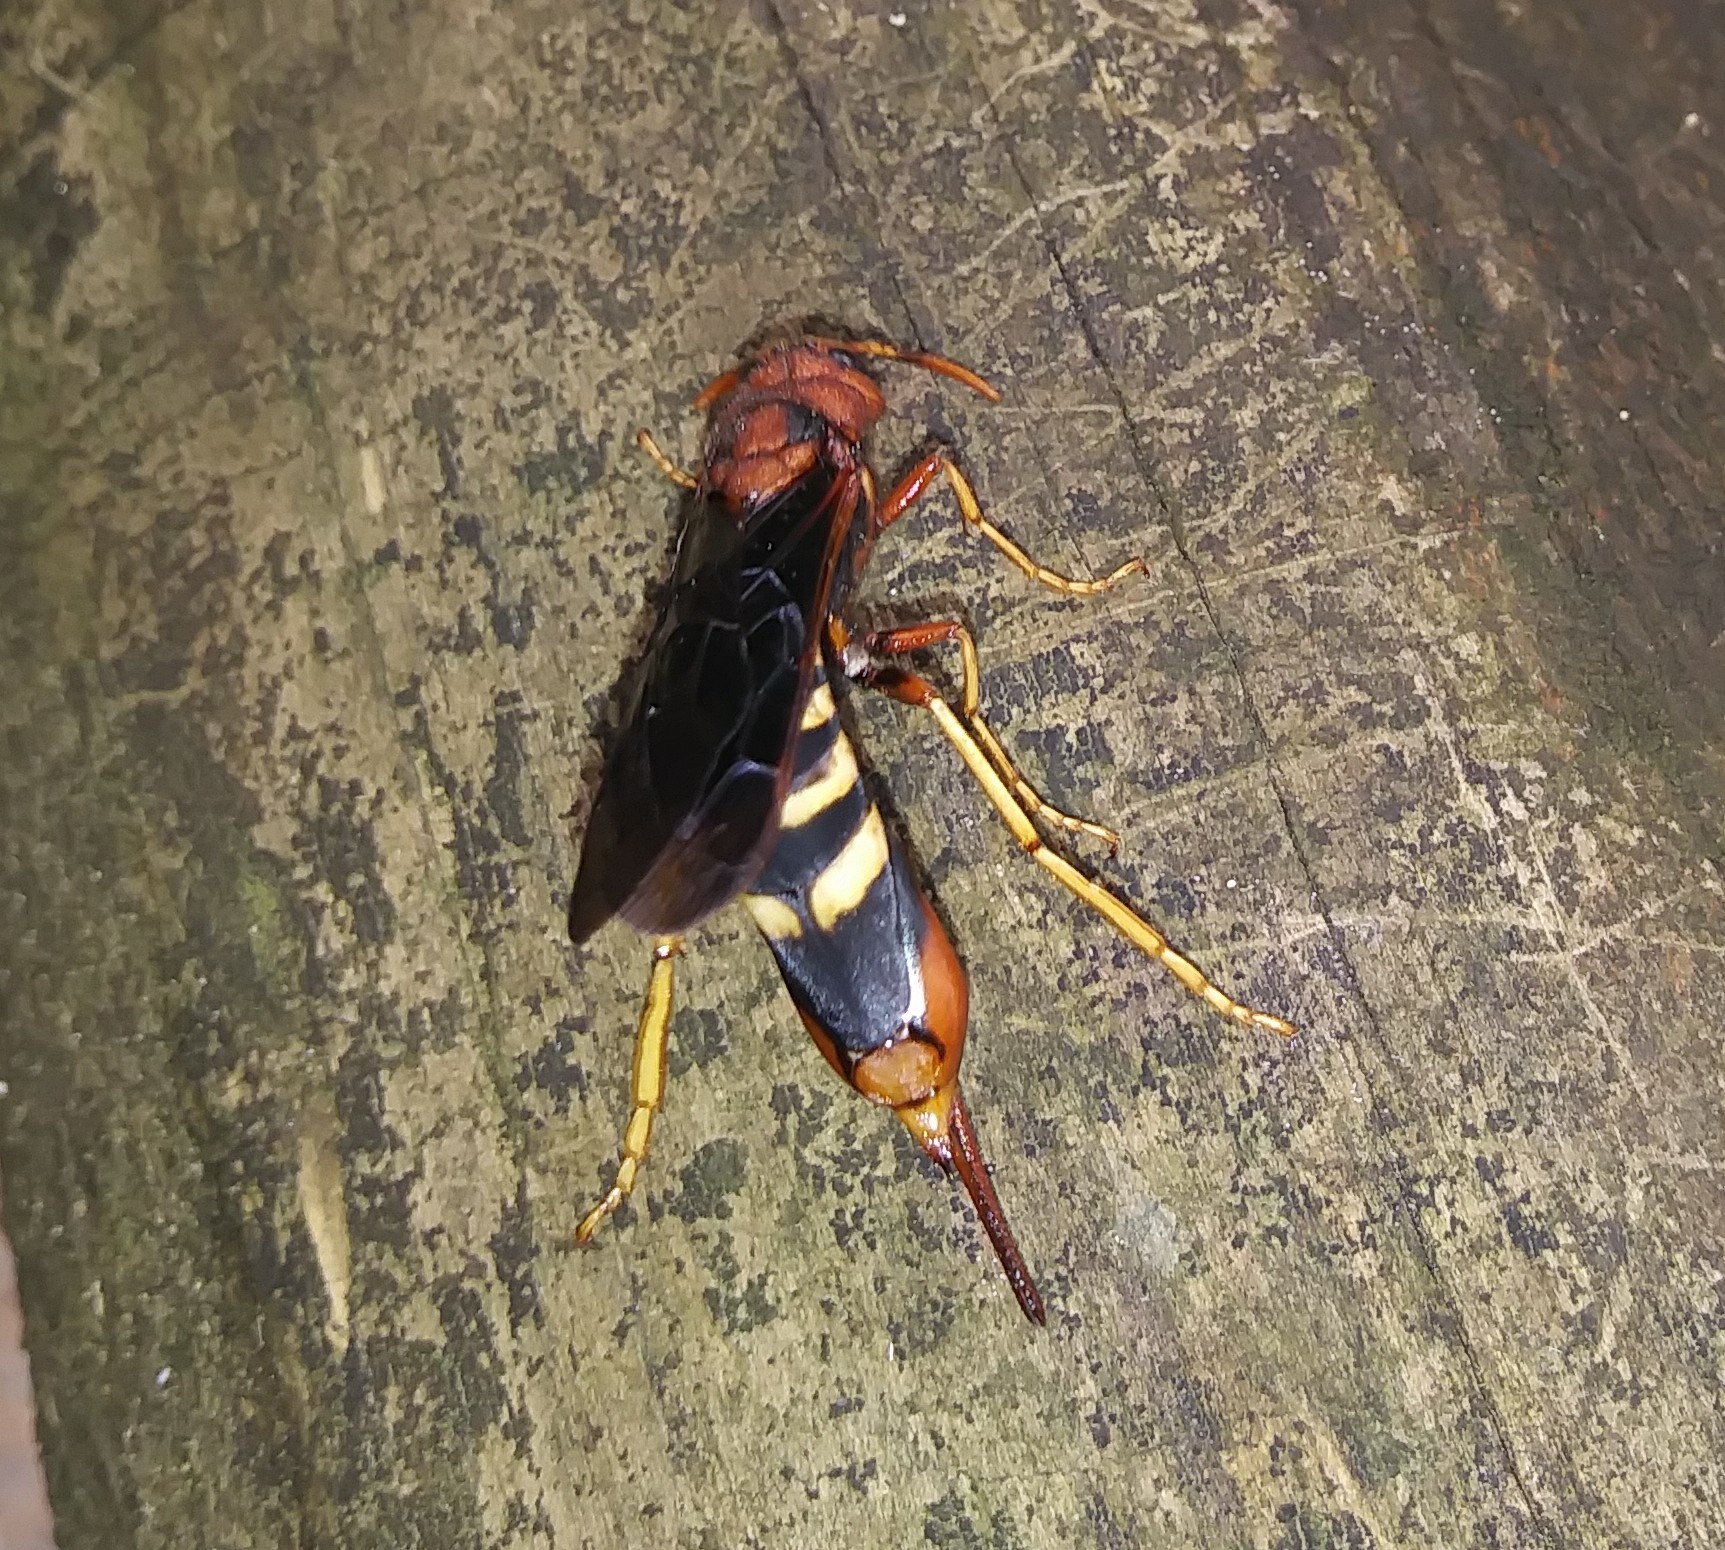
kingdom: Animalia
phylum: Arthropoda
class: Insecta
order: Hymenoptera
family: Siricidae
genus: Tremex
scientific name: Tremex columba
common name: Wasp
